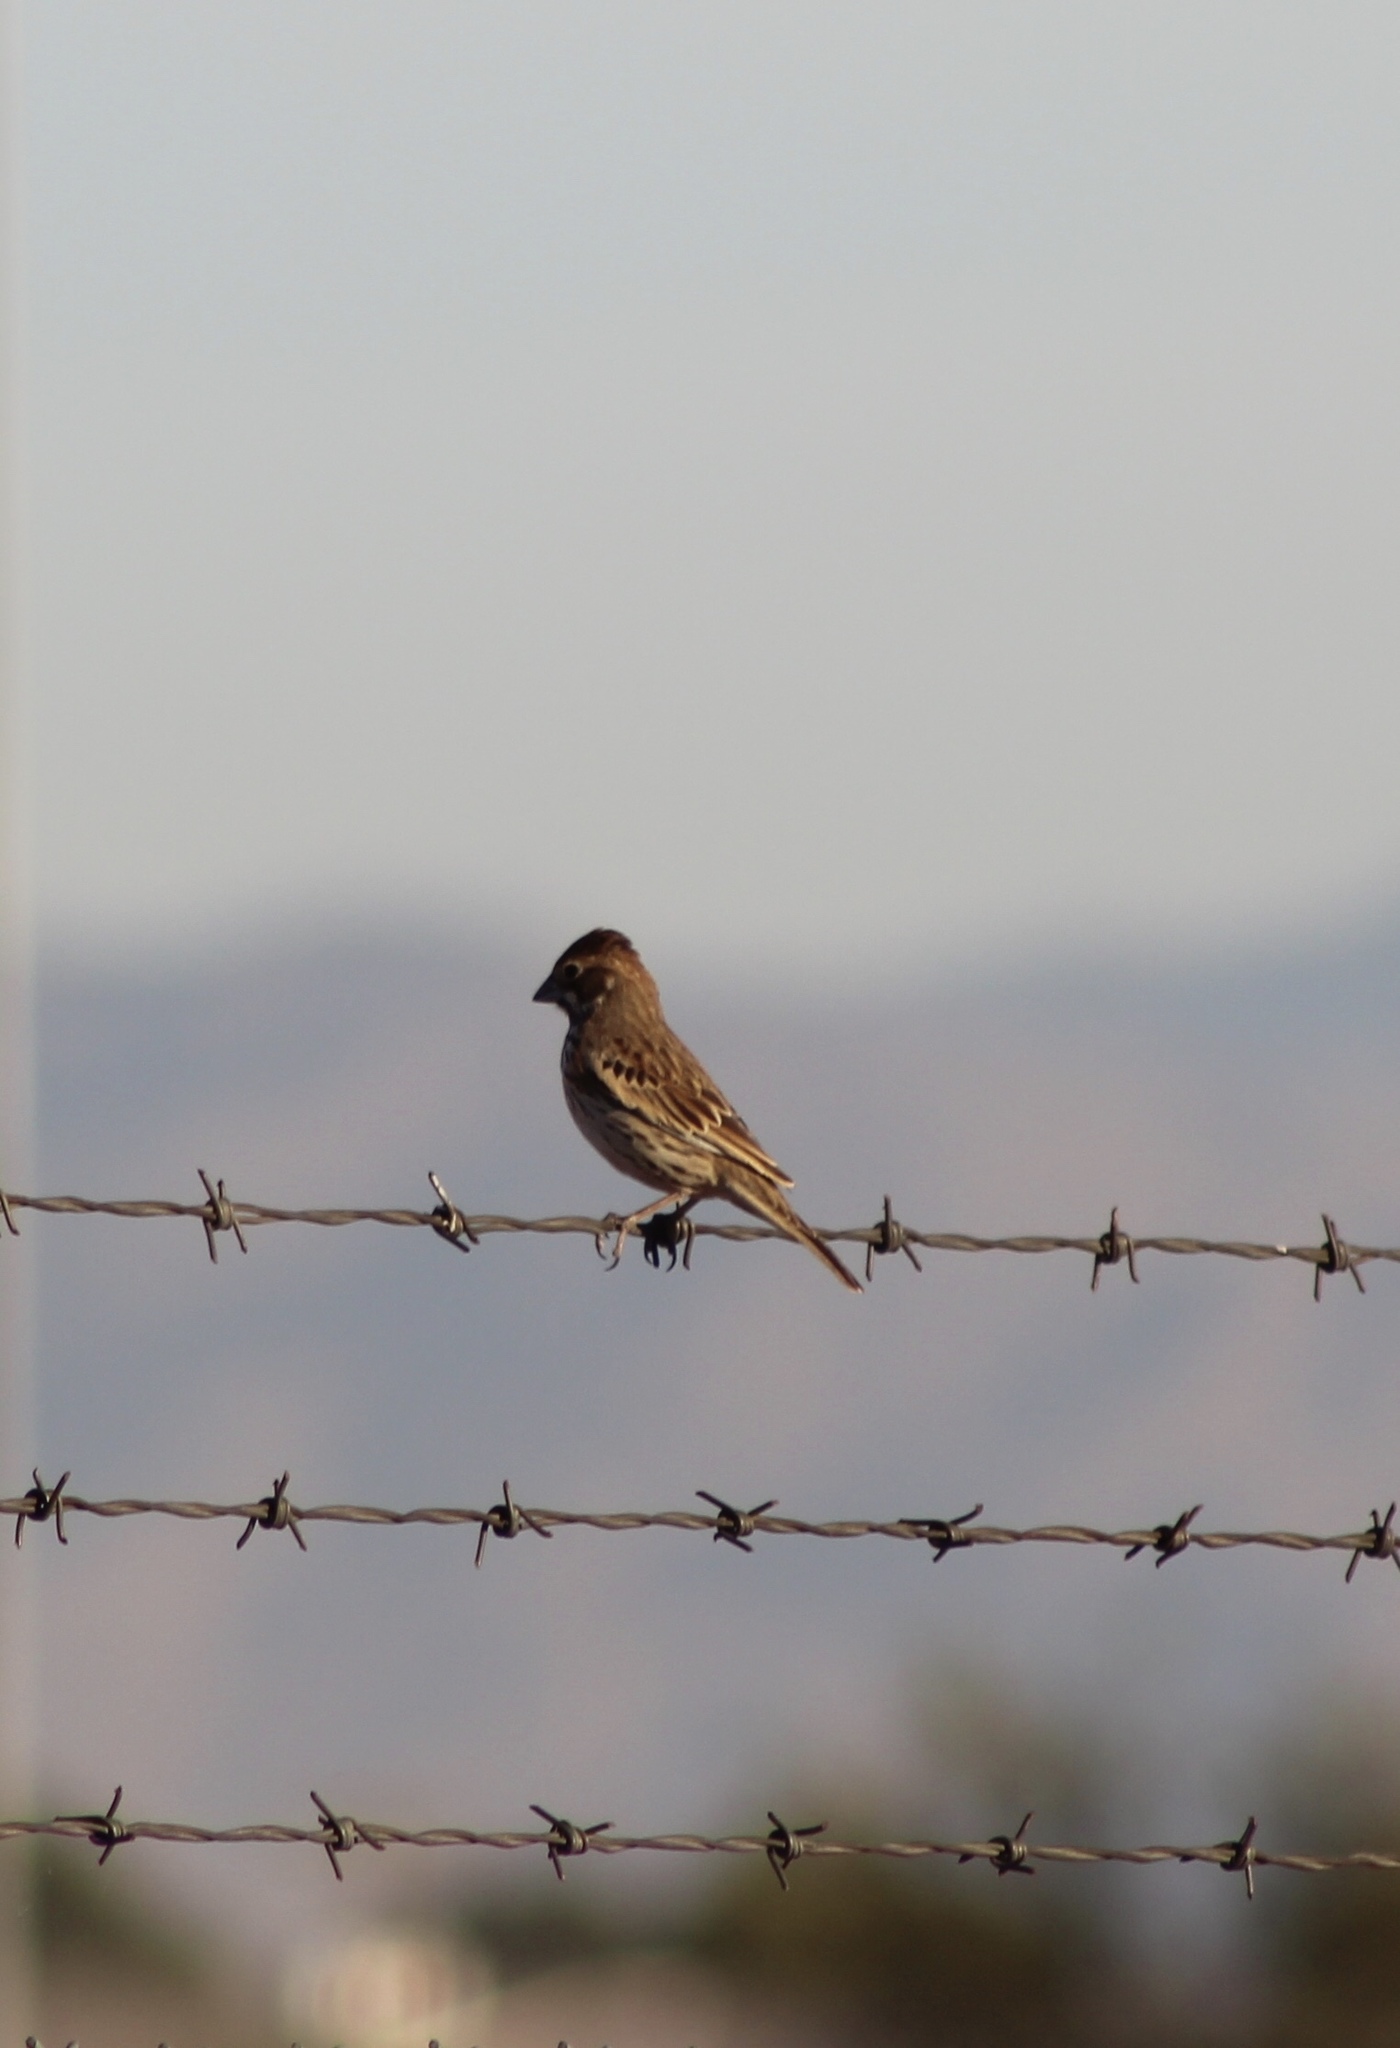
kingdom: Animalia
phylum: Chordata
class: Aves
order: Passeriformes
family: Passerellidae
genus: Calamospiza
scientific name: Calamospiza melanocorys
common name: Lark bunting
